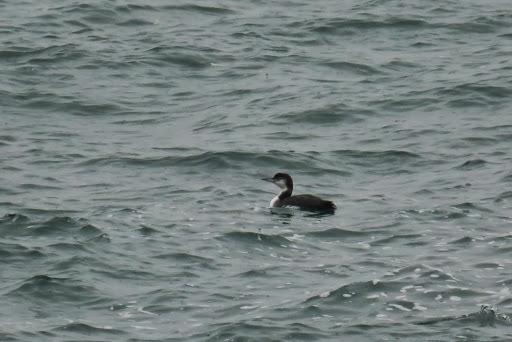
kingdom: Animalia
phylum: Chordata
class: Aves
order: Gaviiformes
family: Gaviidae
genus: Gavia
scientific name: Gavia immer
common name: Common loon
